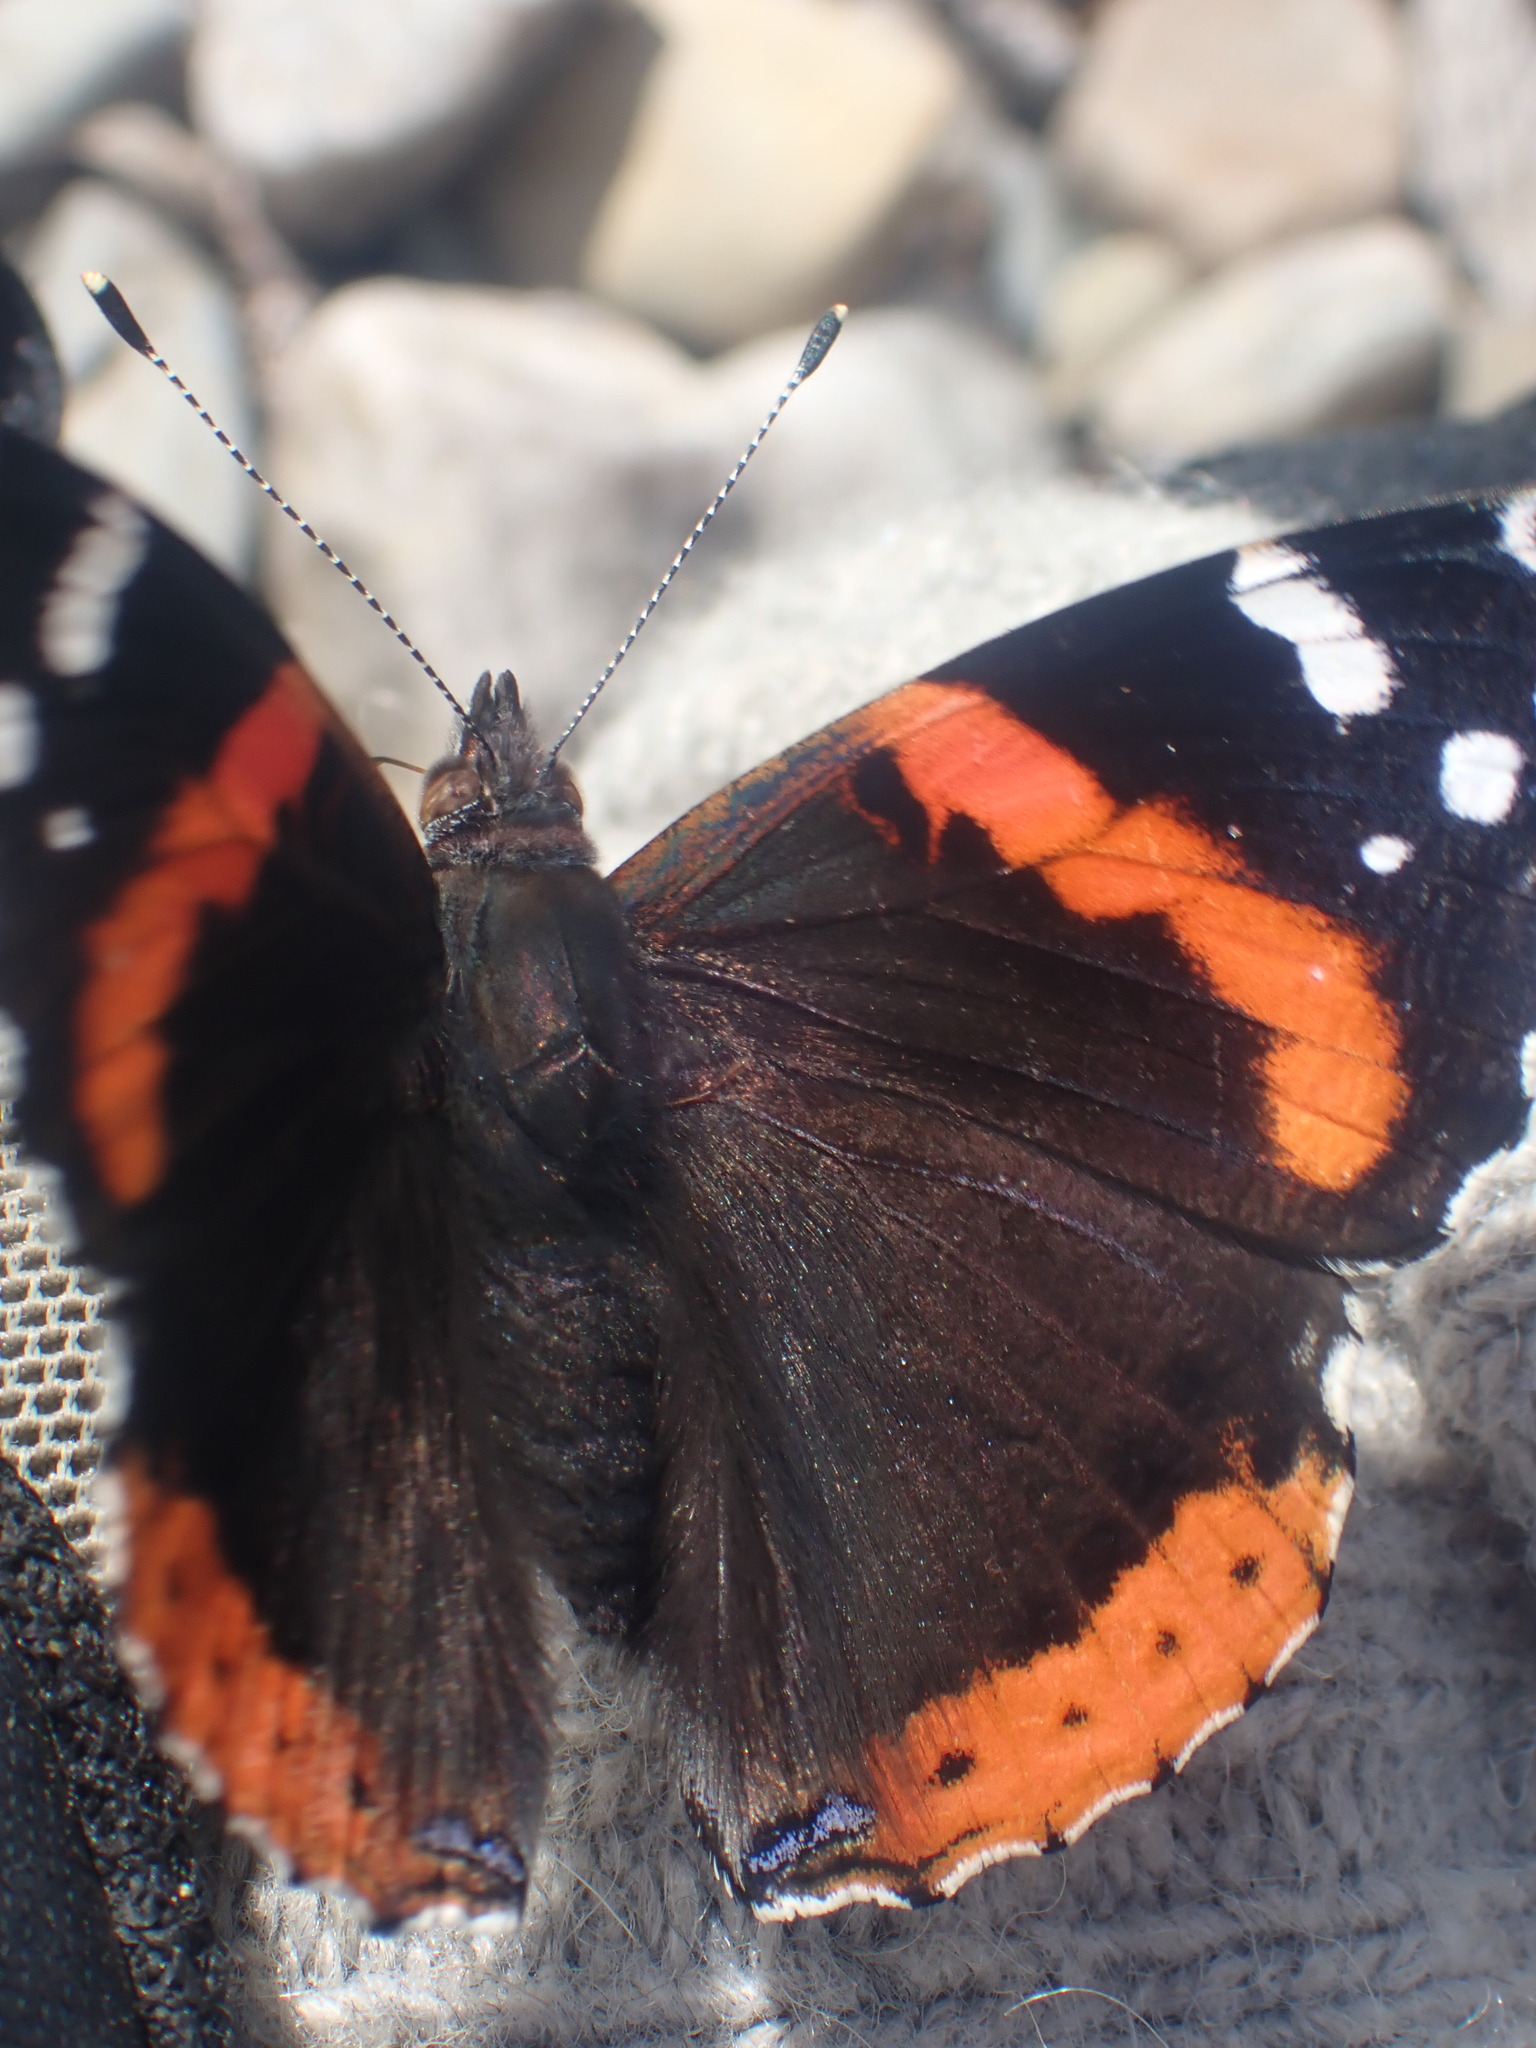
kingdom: Animalia
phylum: Arthropoda
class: Insecta
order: Lepidoptera
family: Nymphalidae
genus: Vanessa
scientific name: Vanessa atalanta
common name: Red admiral
